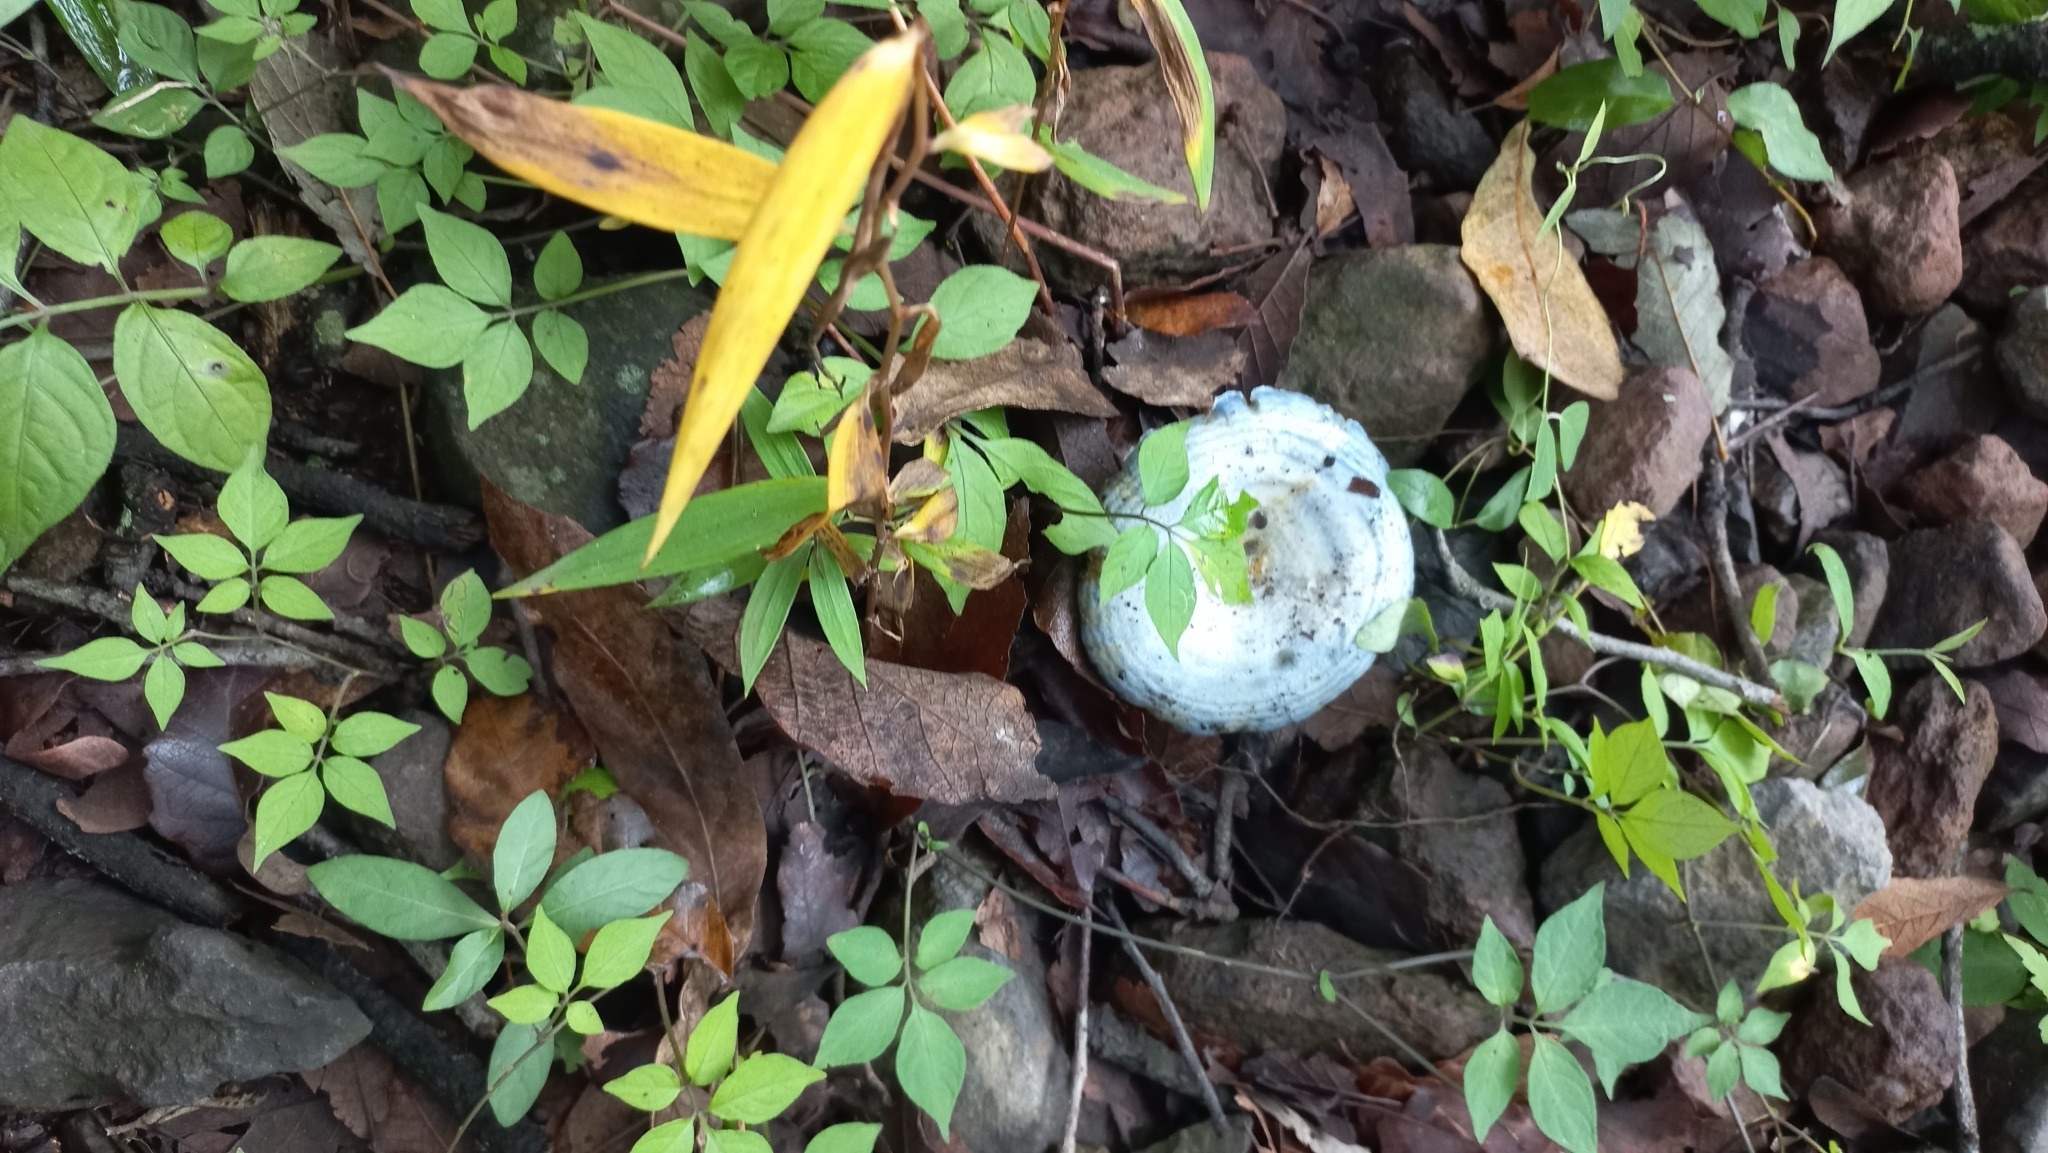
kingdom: Fungi
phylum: Basidiomycota
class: Agaricomycetes
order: Russulales
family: Russulaceae
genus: Lactarius
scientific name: Lactarius indigo
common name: Indigo milk cap
